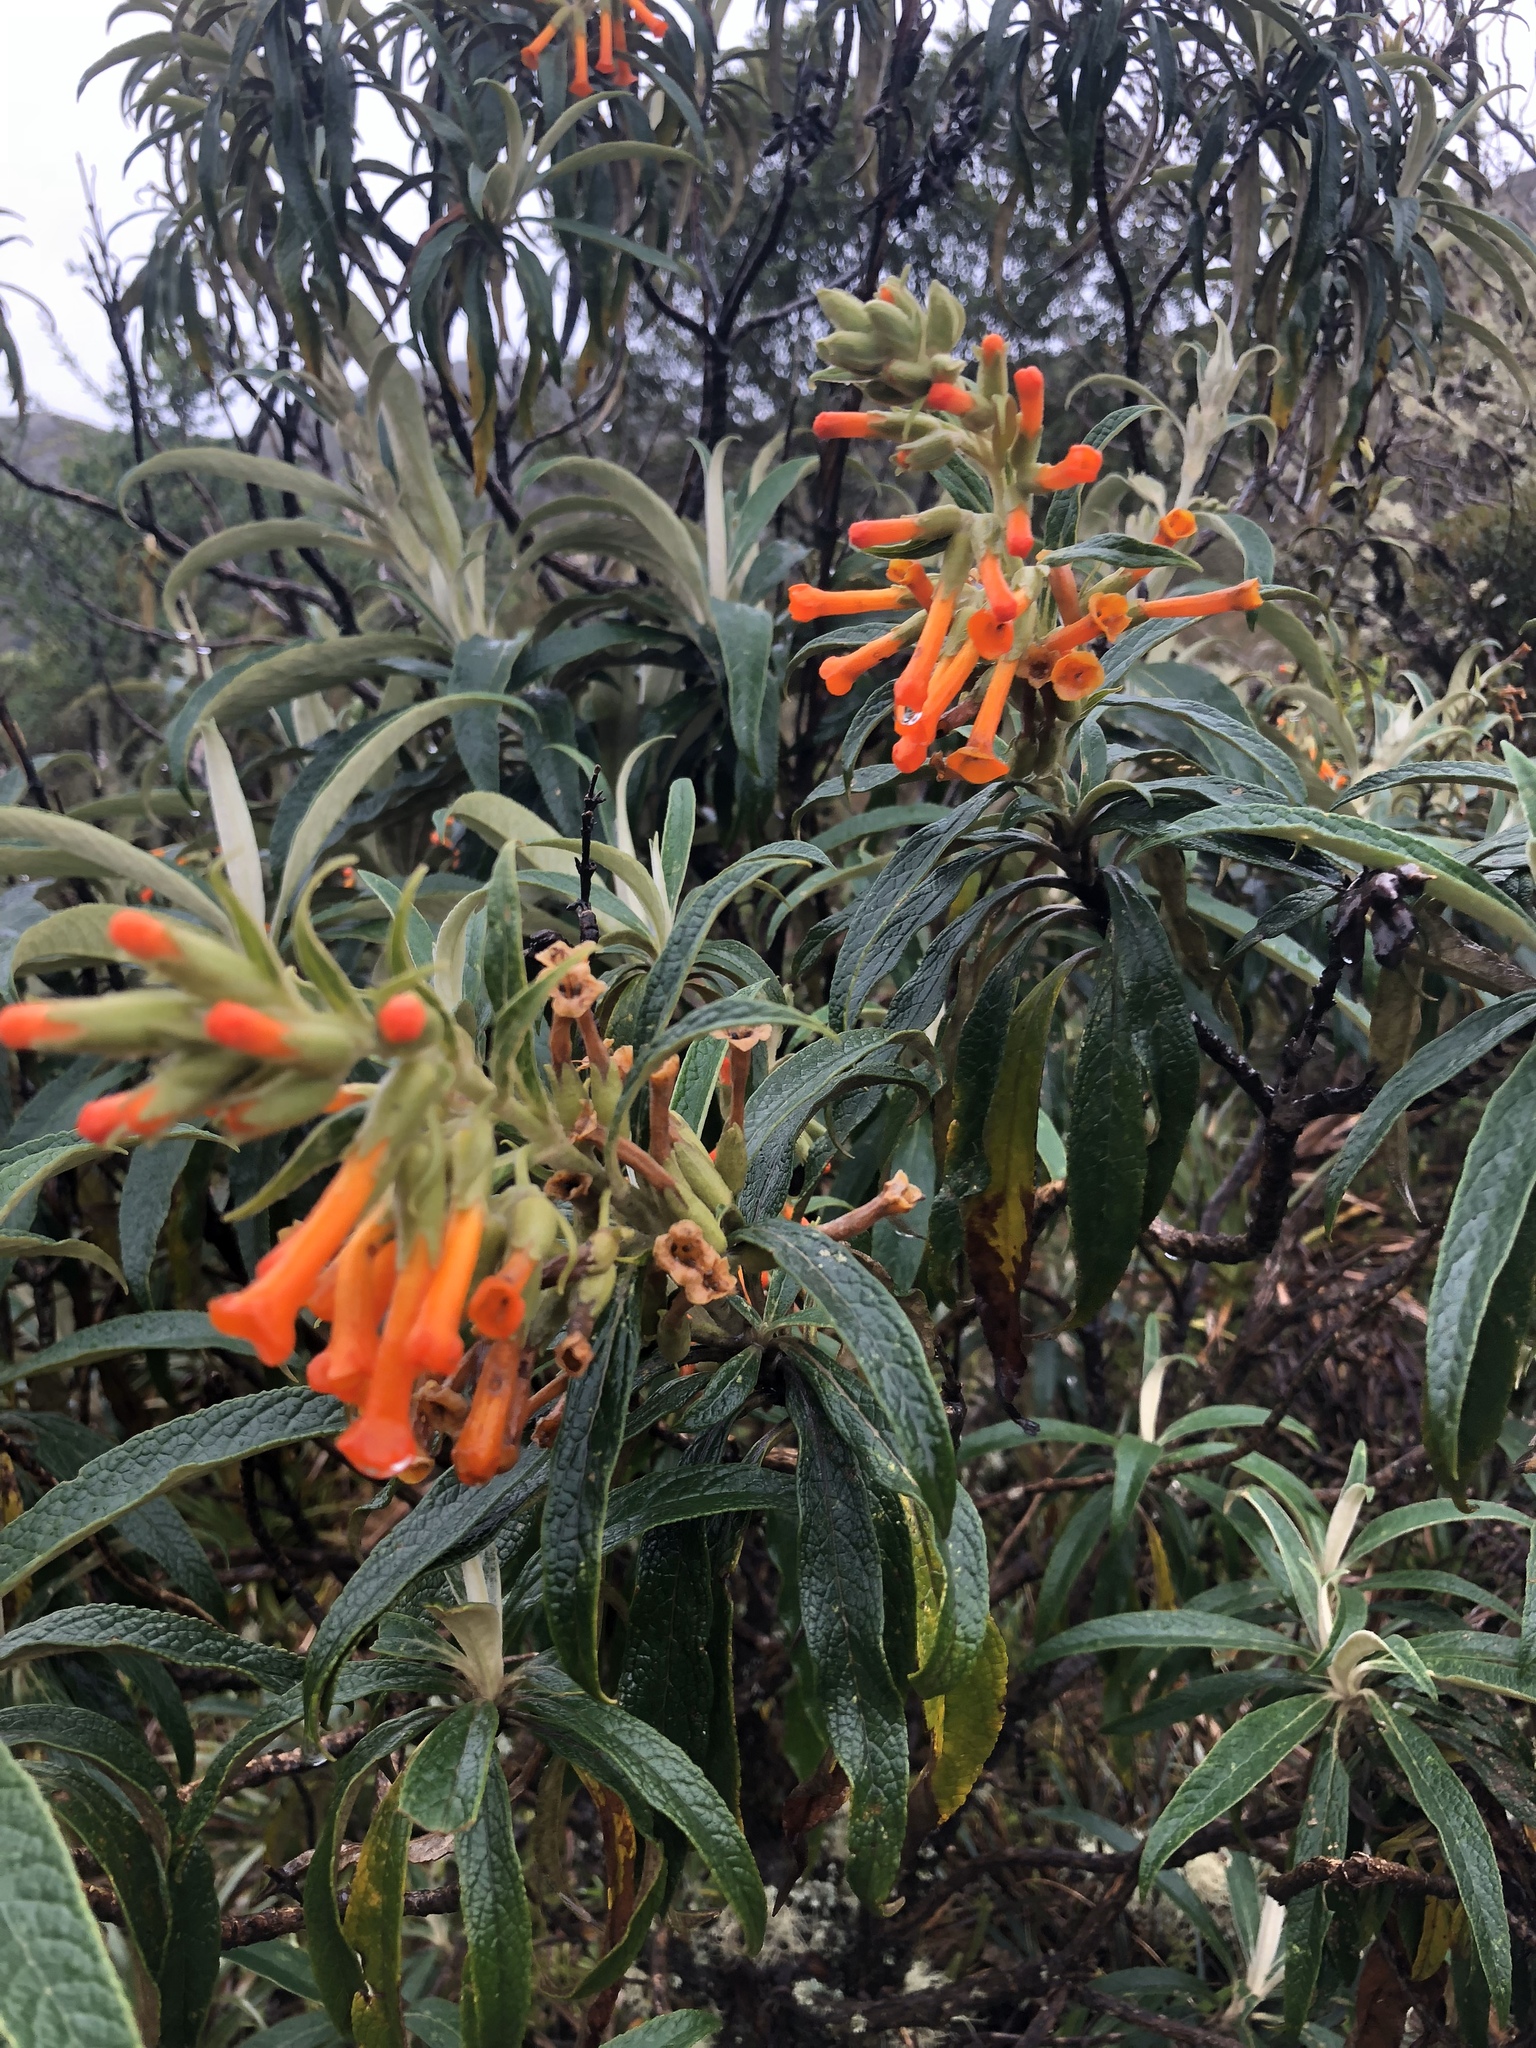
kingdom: Plantae
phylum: Tracheophyta
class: Magnoliopsida
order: Lamiales
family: Scrophulariaceae
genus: Buddleja
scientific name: Buddleja speciosissima
